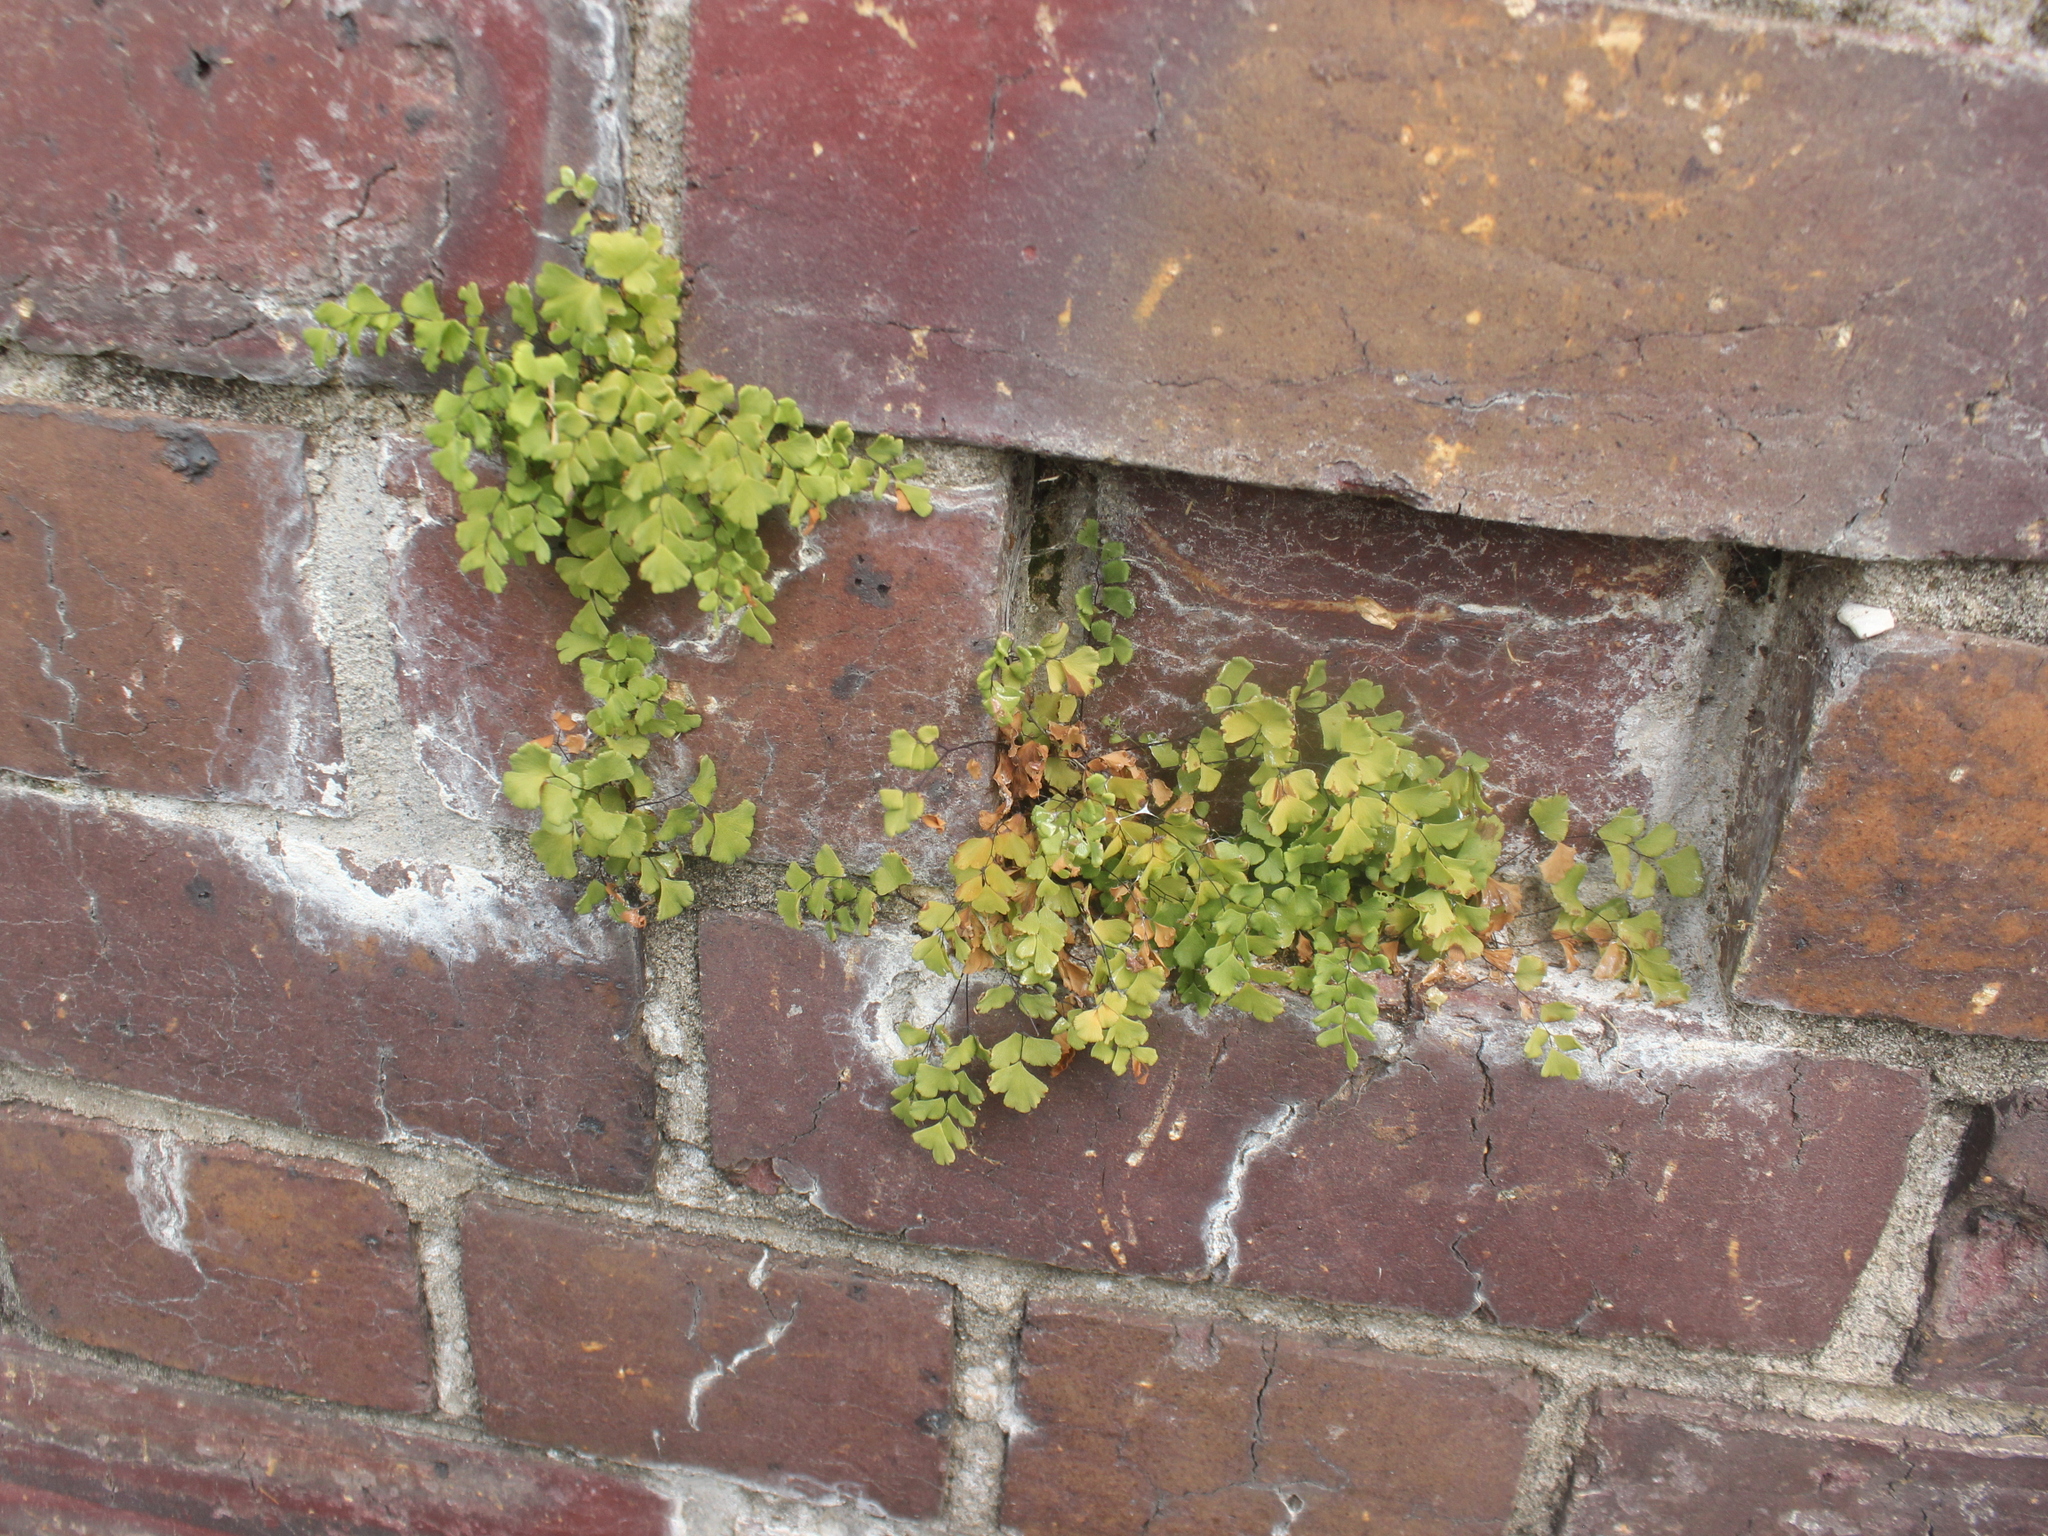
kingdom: Plantae
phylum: Tracheophyta
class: Polypodiopsida
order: Polypodiales
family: Pteridaceae
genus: Adiantum
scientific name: Adiantum capillus-veneris
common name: Maidenhair fern
